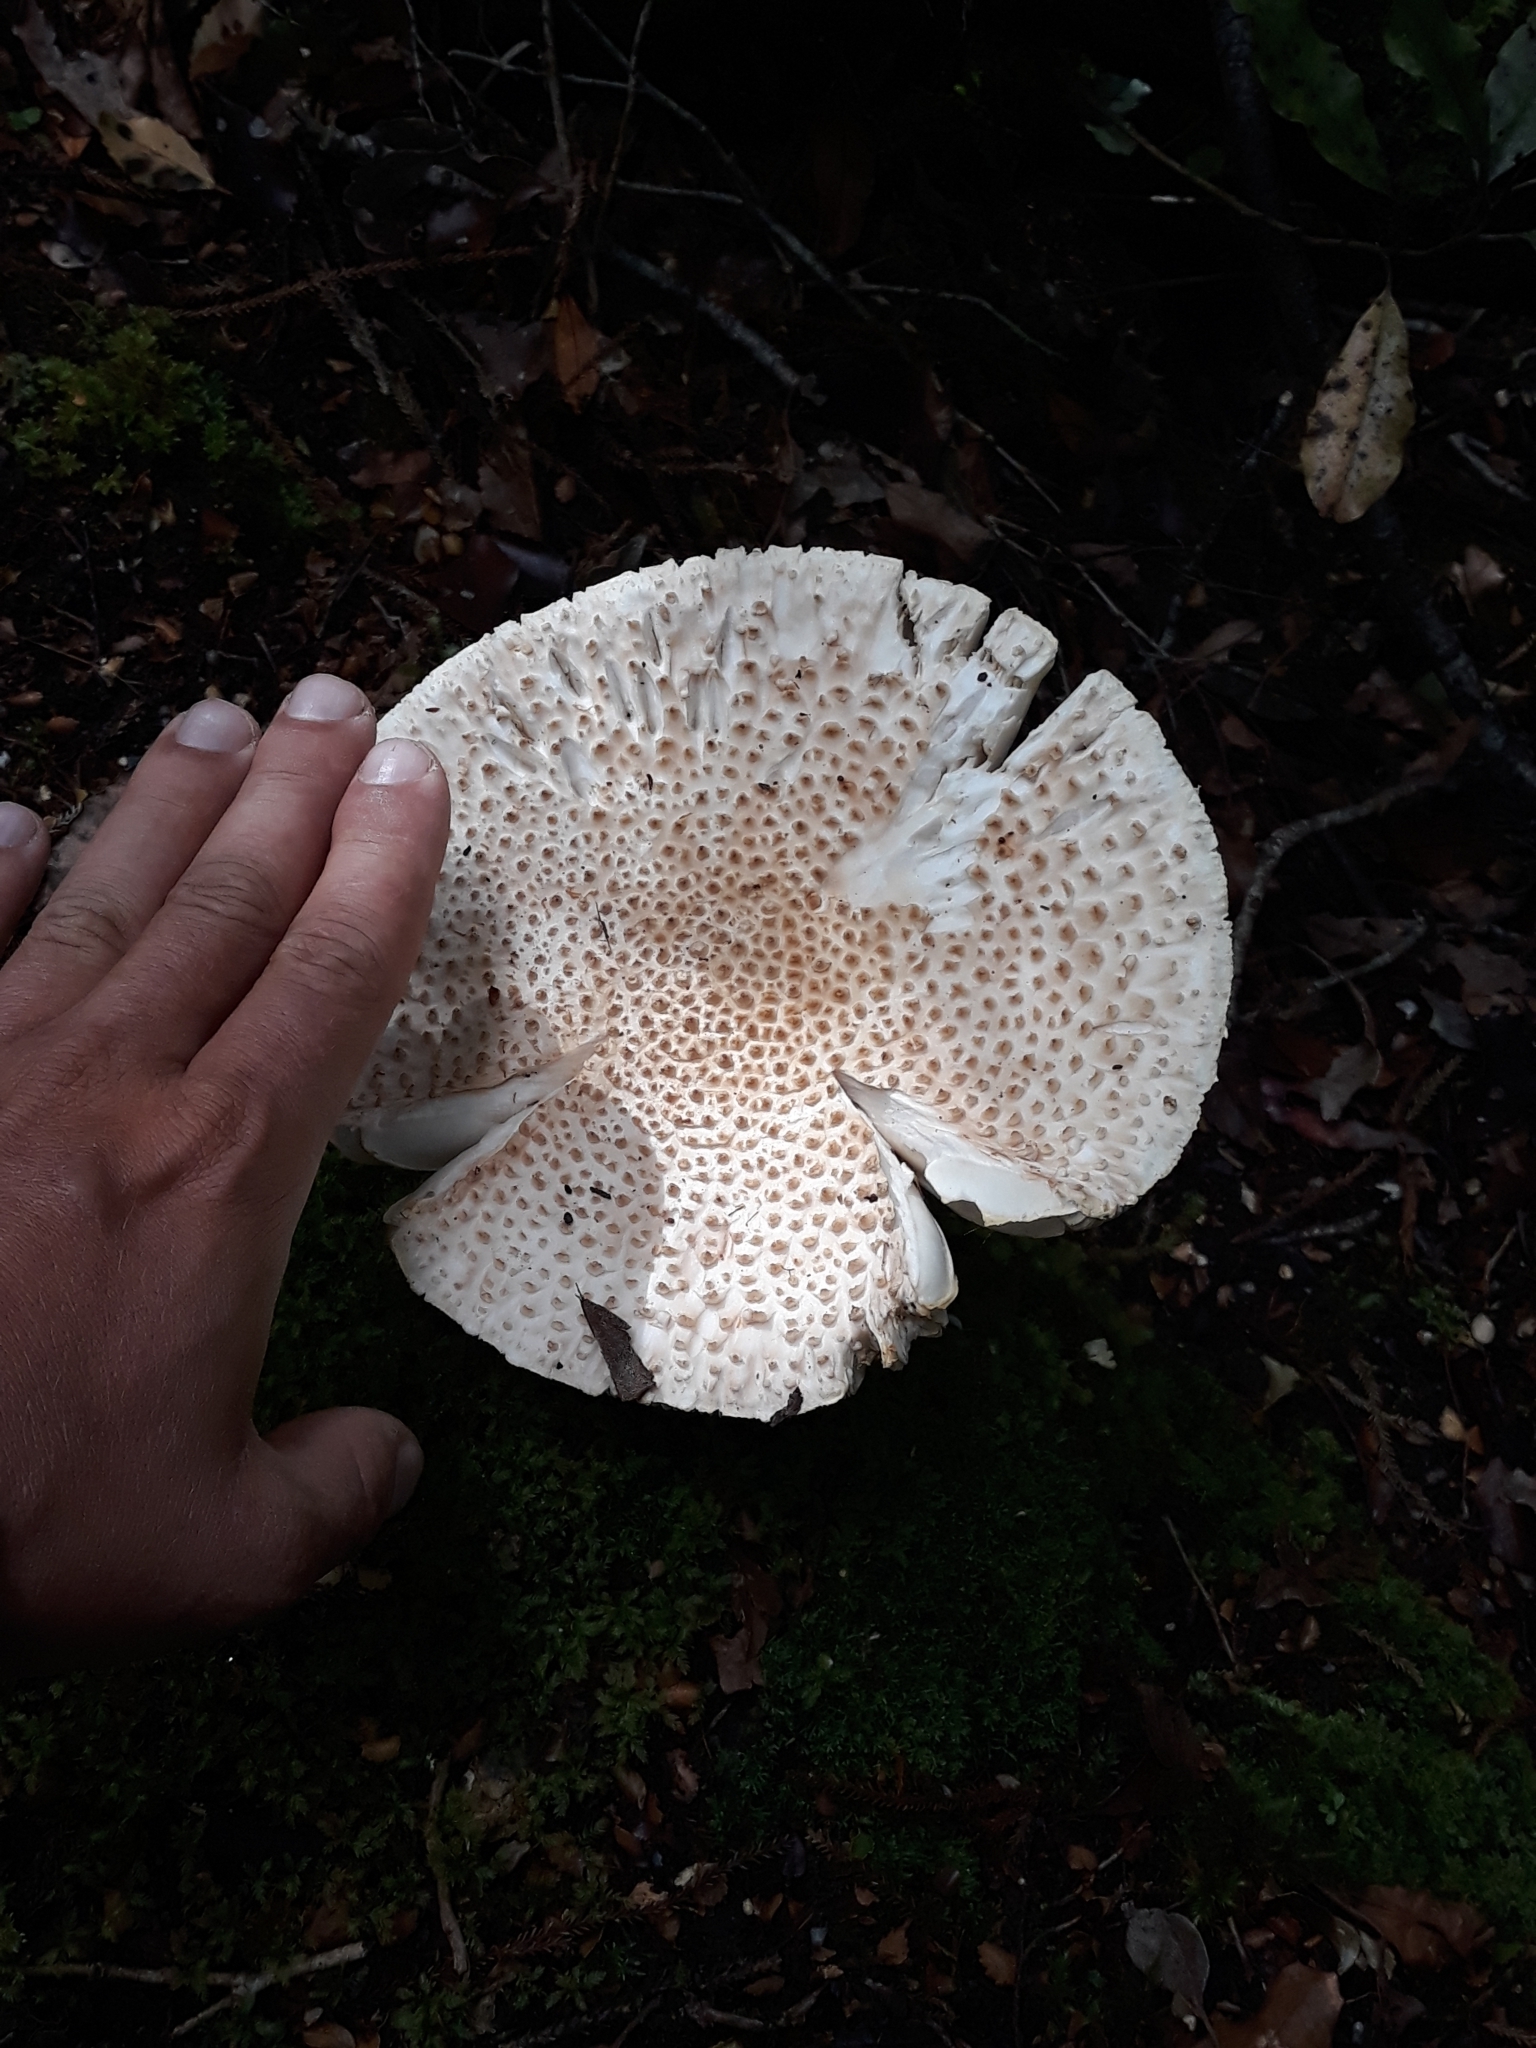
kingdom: Fungi
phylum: Basidiomycota
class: Agaricomycetes
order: Agaricales
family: Amanitaceae
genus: Amanita
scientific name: Amanita pareparina
